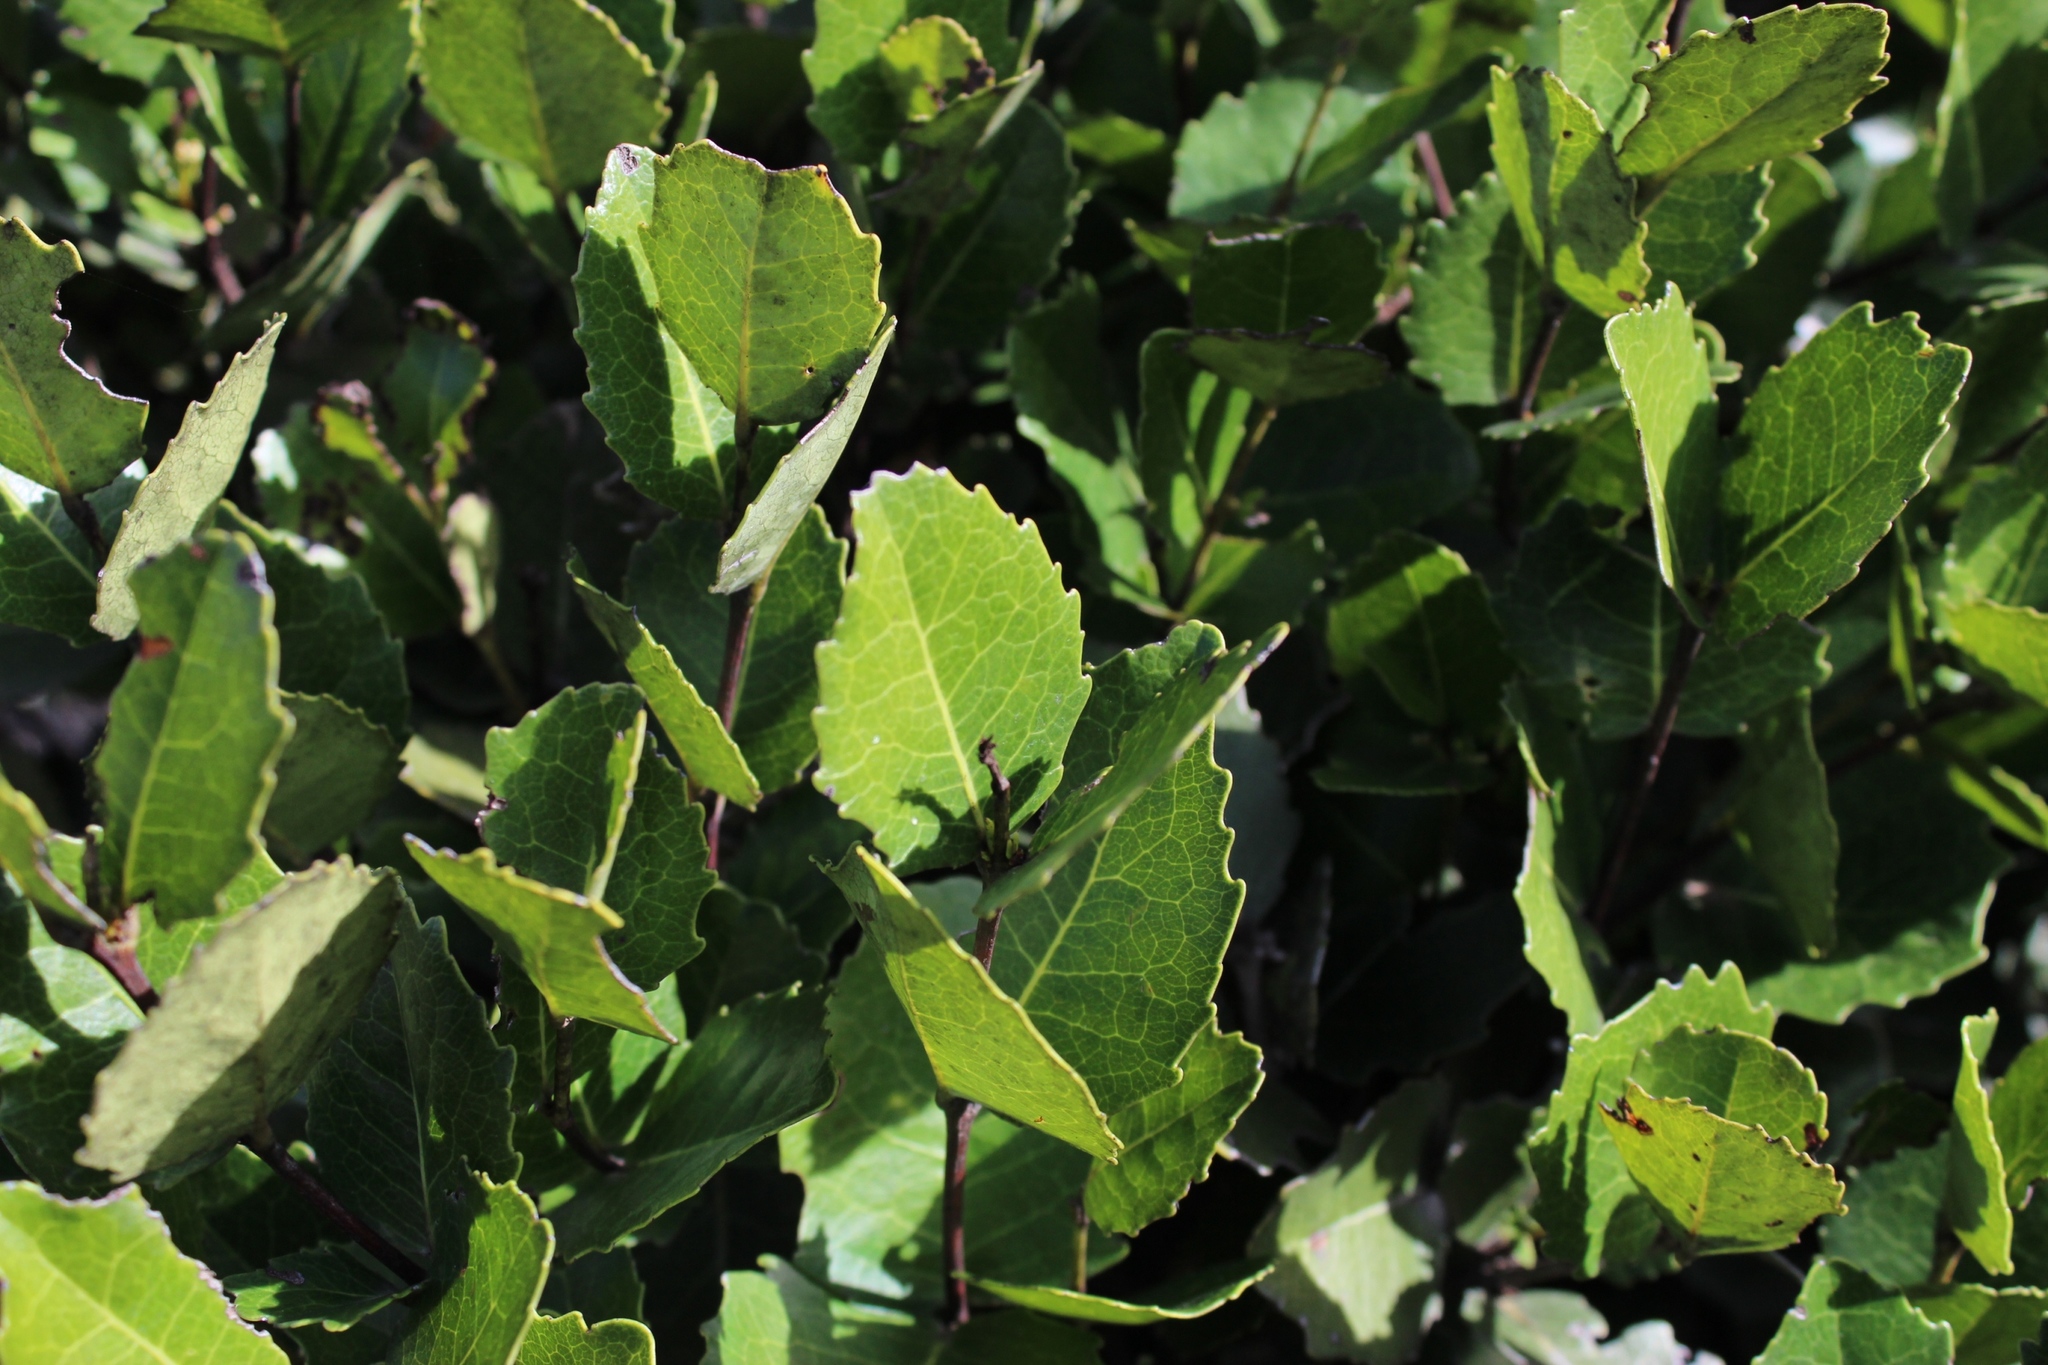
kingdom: Plantae
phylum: Tracheophyta
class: Magnoliopsida
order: Celastrales
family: Celastraceae
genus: Cassine
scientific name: Cassine peragua
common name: Cape saffron
